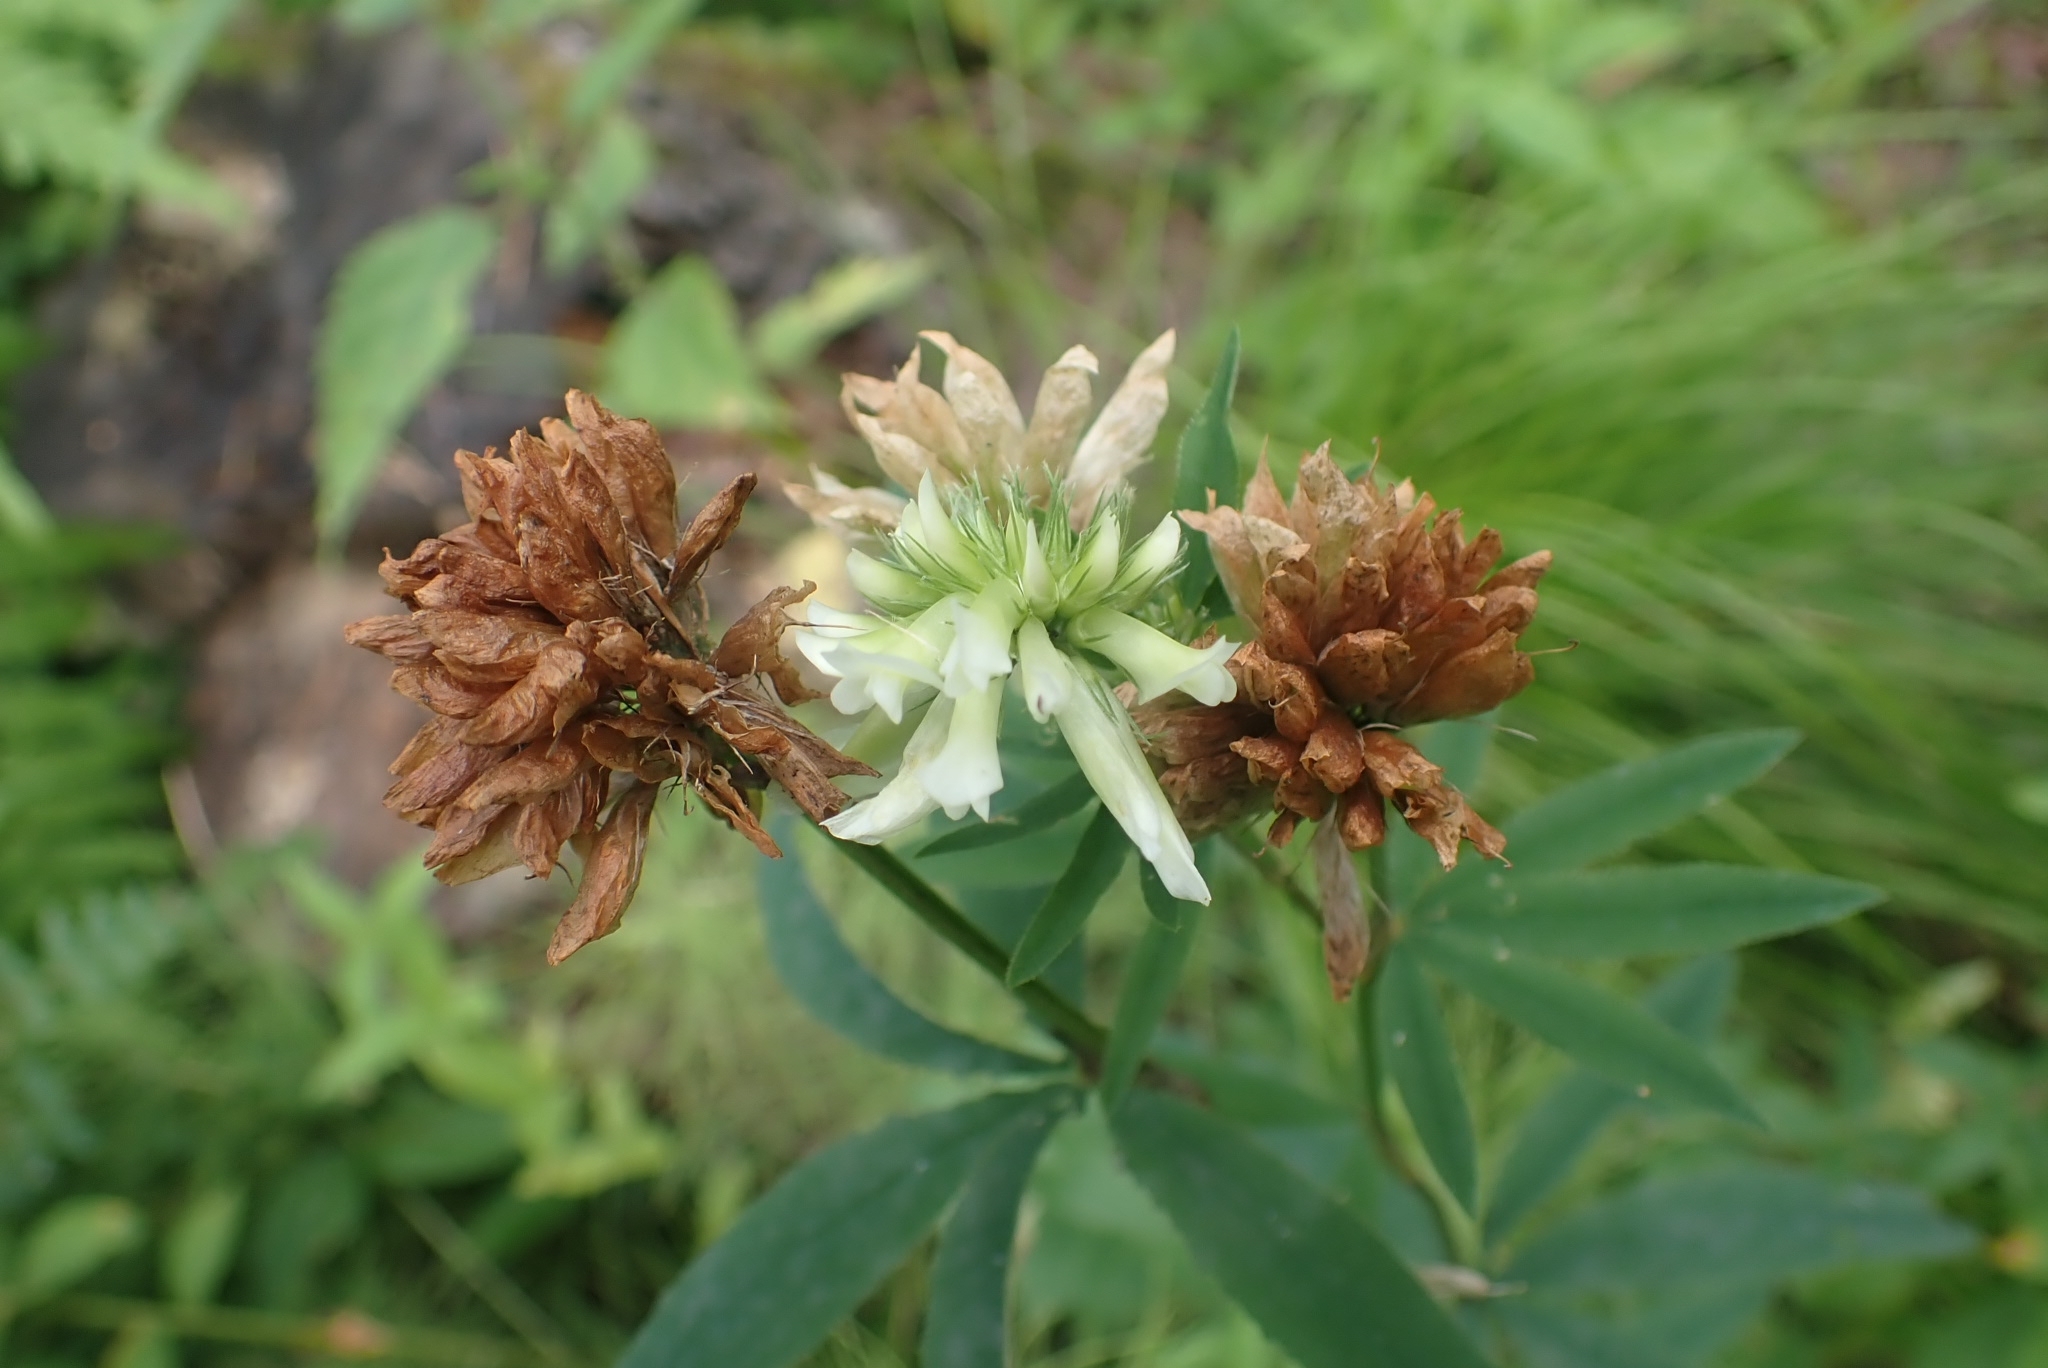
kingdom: Plantae
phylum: Tracheophyta
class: Magnoliopsida
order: Fabales
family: Fabaceae
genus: Trifolium
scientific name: Trifolium lupinaster
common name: Lupine clover
